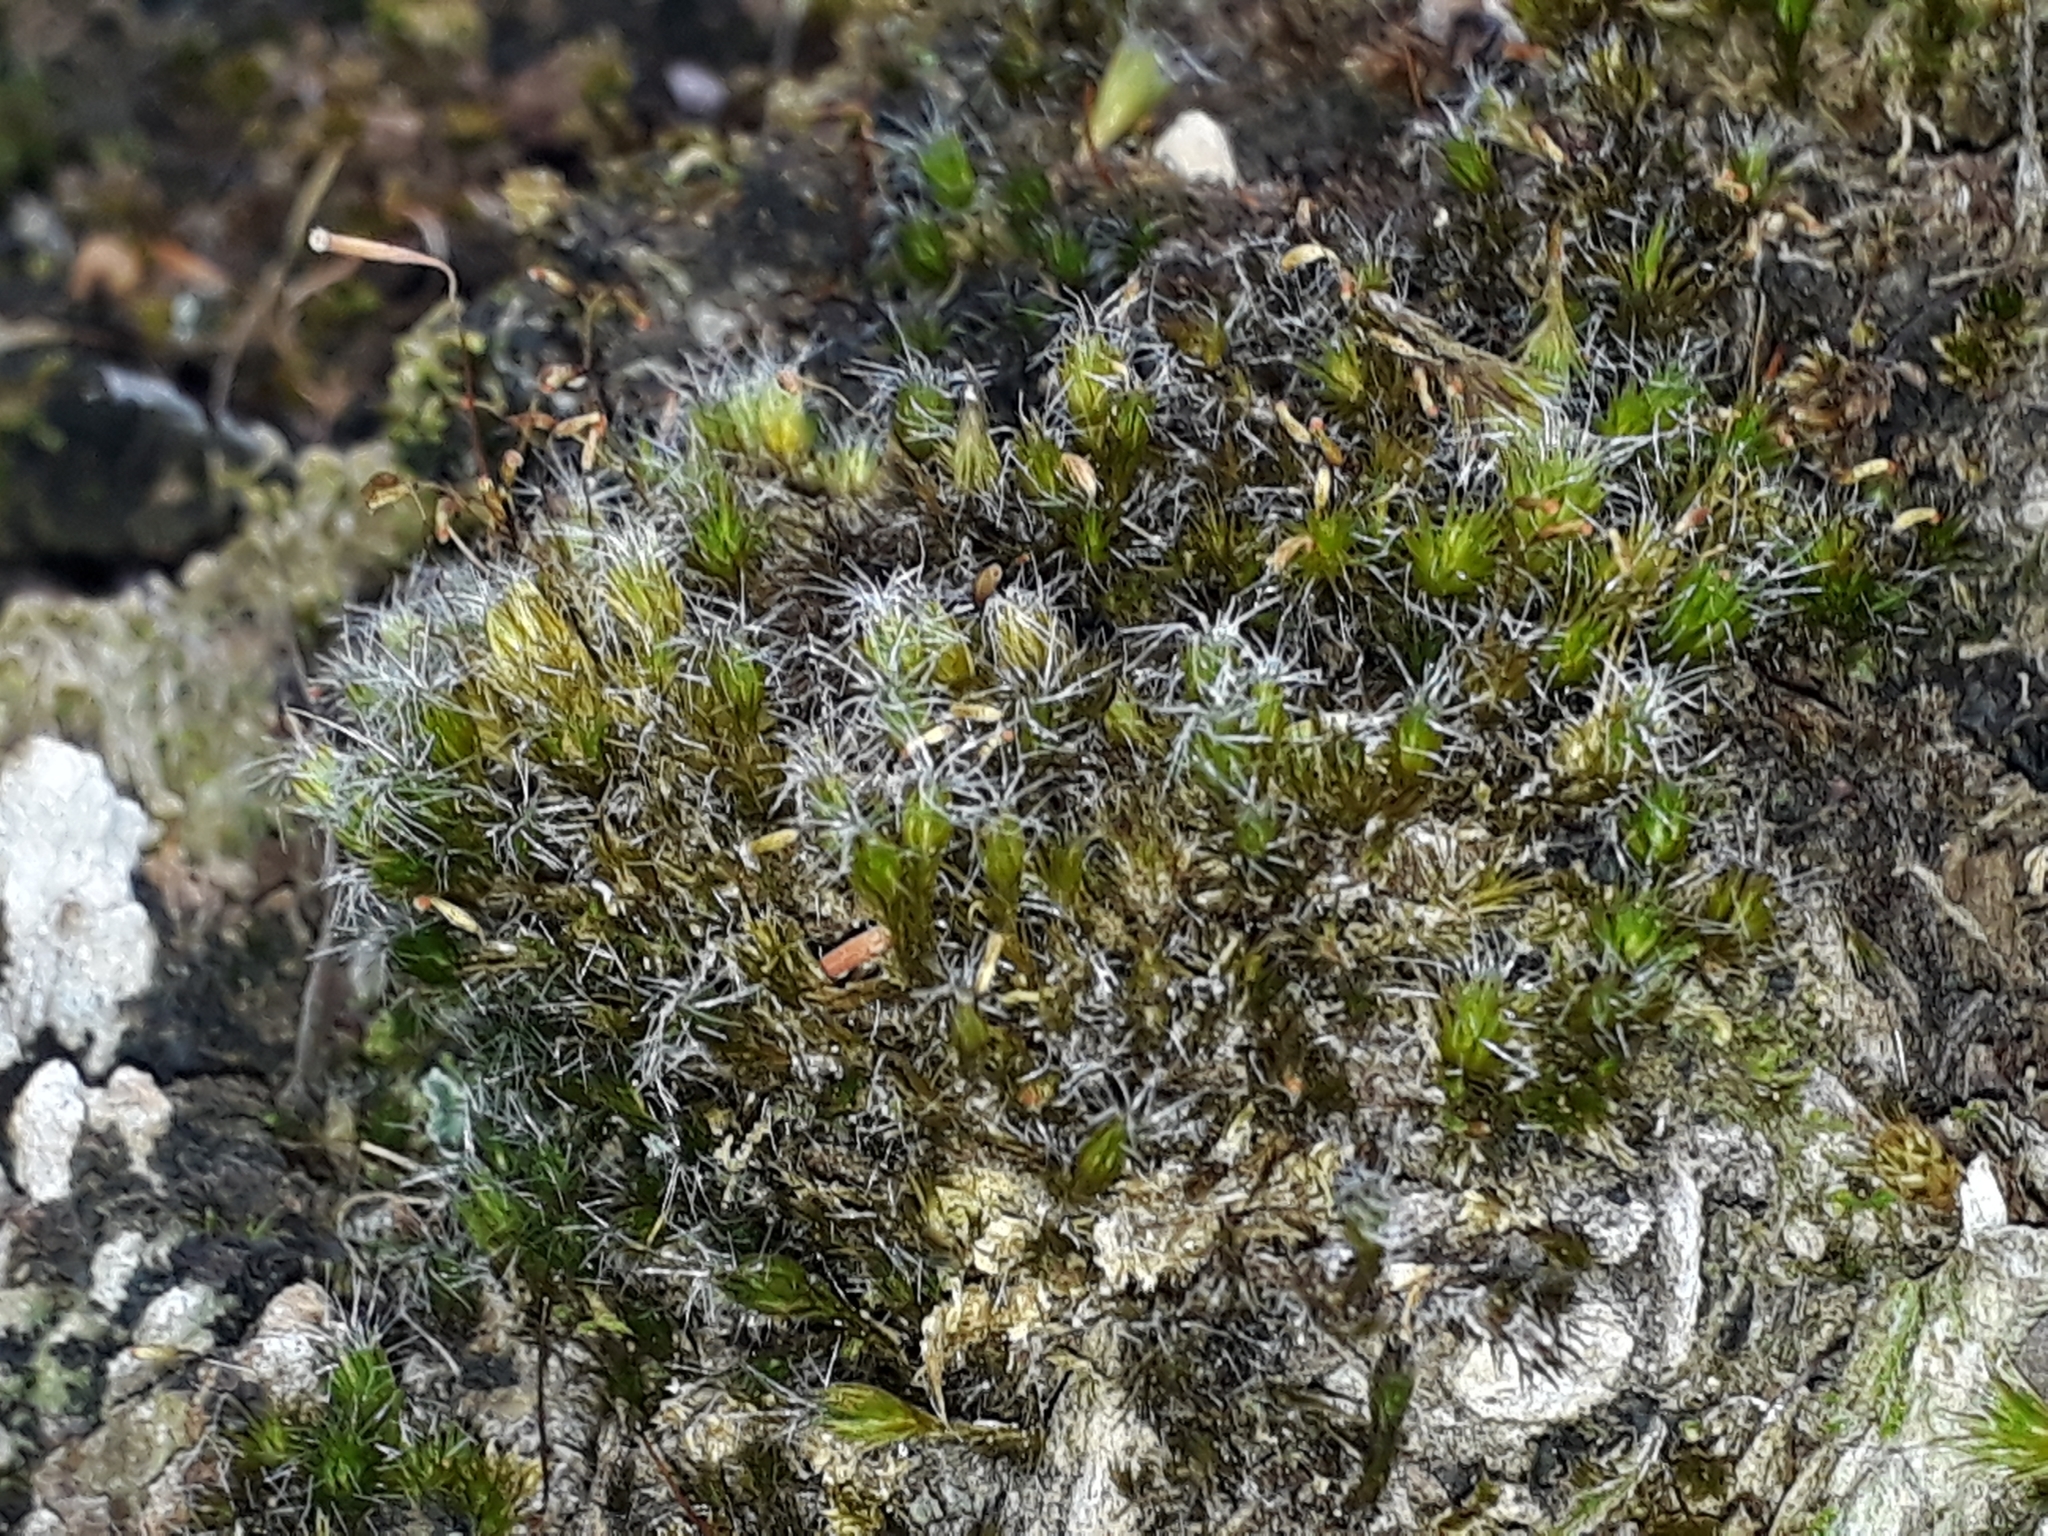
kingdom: Plantae
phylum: Bryophyta
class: Bryopsida
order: Dicranales
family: Leucobryaceae
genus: Campylopus
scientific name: Campylopus introflexus
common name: Heath star moss
